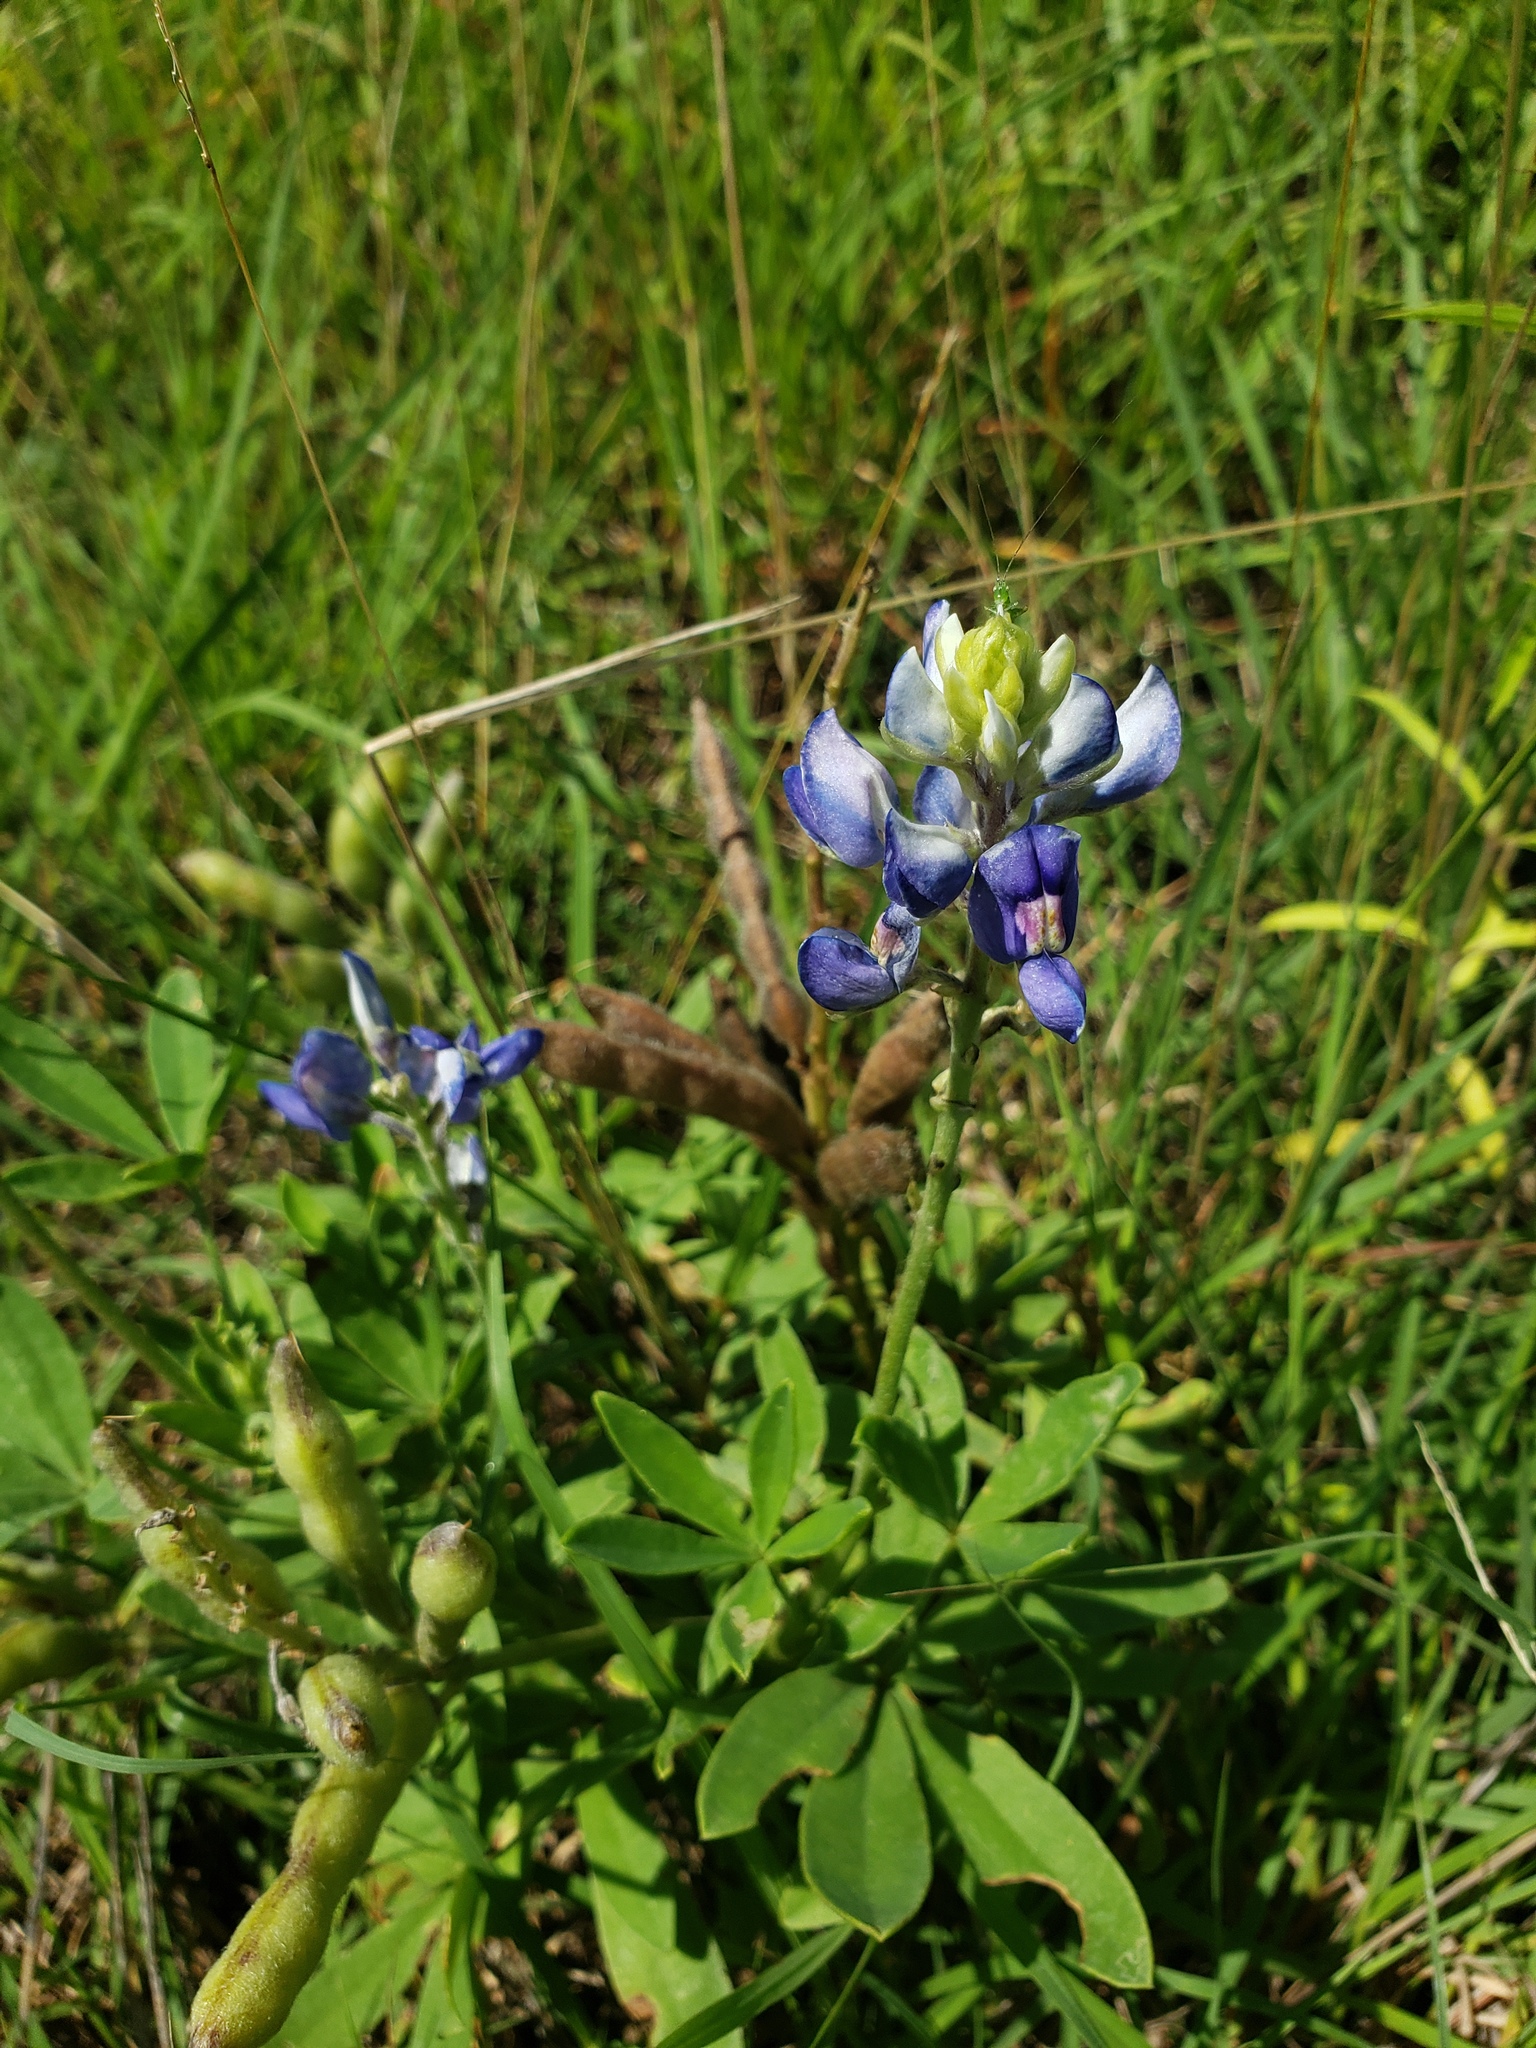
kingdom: Plantae
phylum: Tracheophyta
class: Magnoliopsida
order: Fabales
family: Fabaceae
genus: Lupinus
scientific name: Lupinus texensis
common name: Texas bluebonnet
